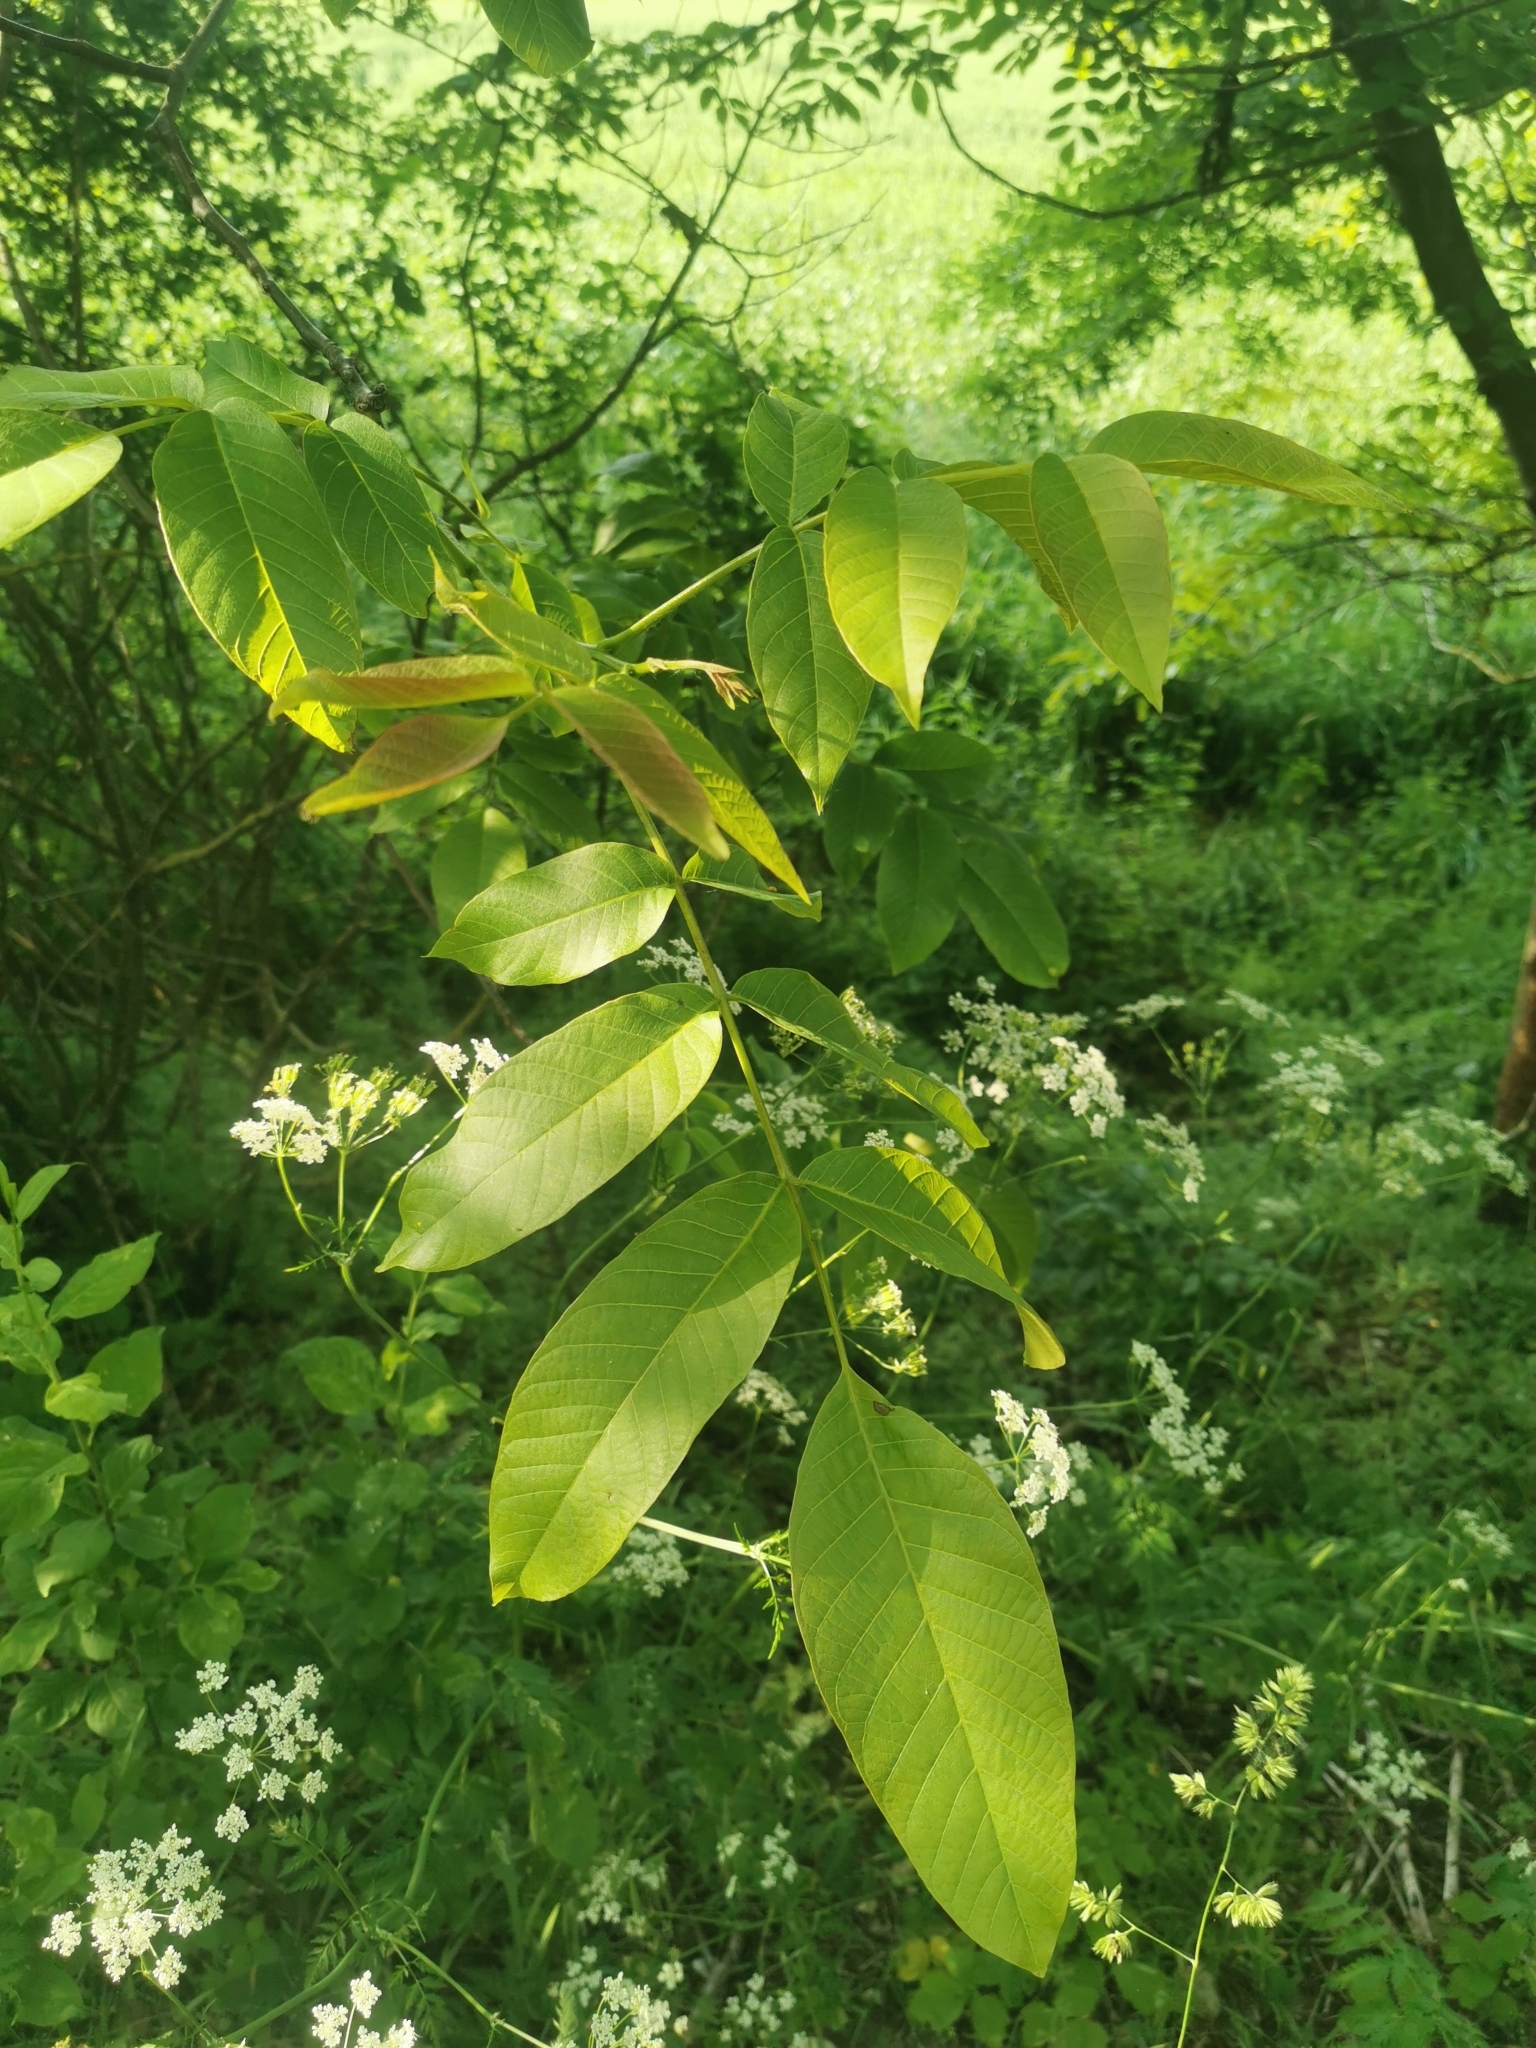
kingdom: Plantae
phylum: Tracheophyta
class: Magnoliopsida
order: Fagales
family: Juglandaceae
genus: Juglans
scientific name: Juglans regia
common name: Walnut
